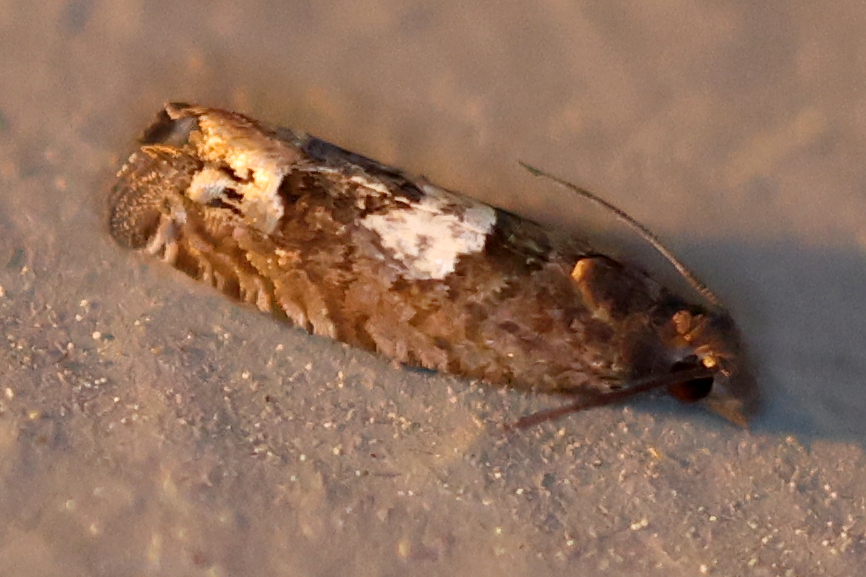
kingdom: Animalia
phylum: Arthropoda
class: Insecta
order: Lepidoptera
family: Tortricidae
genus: Eucosma
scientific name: Eucosma parmatana
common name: Aster eucosma moth
